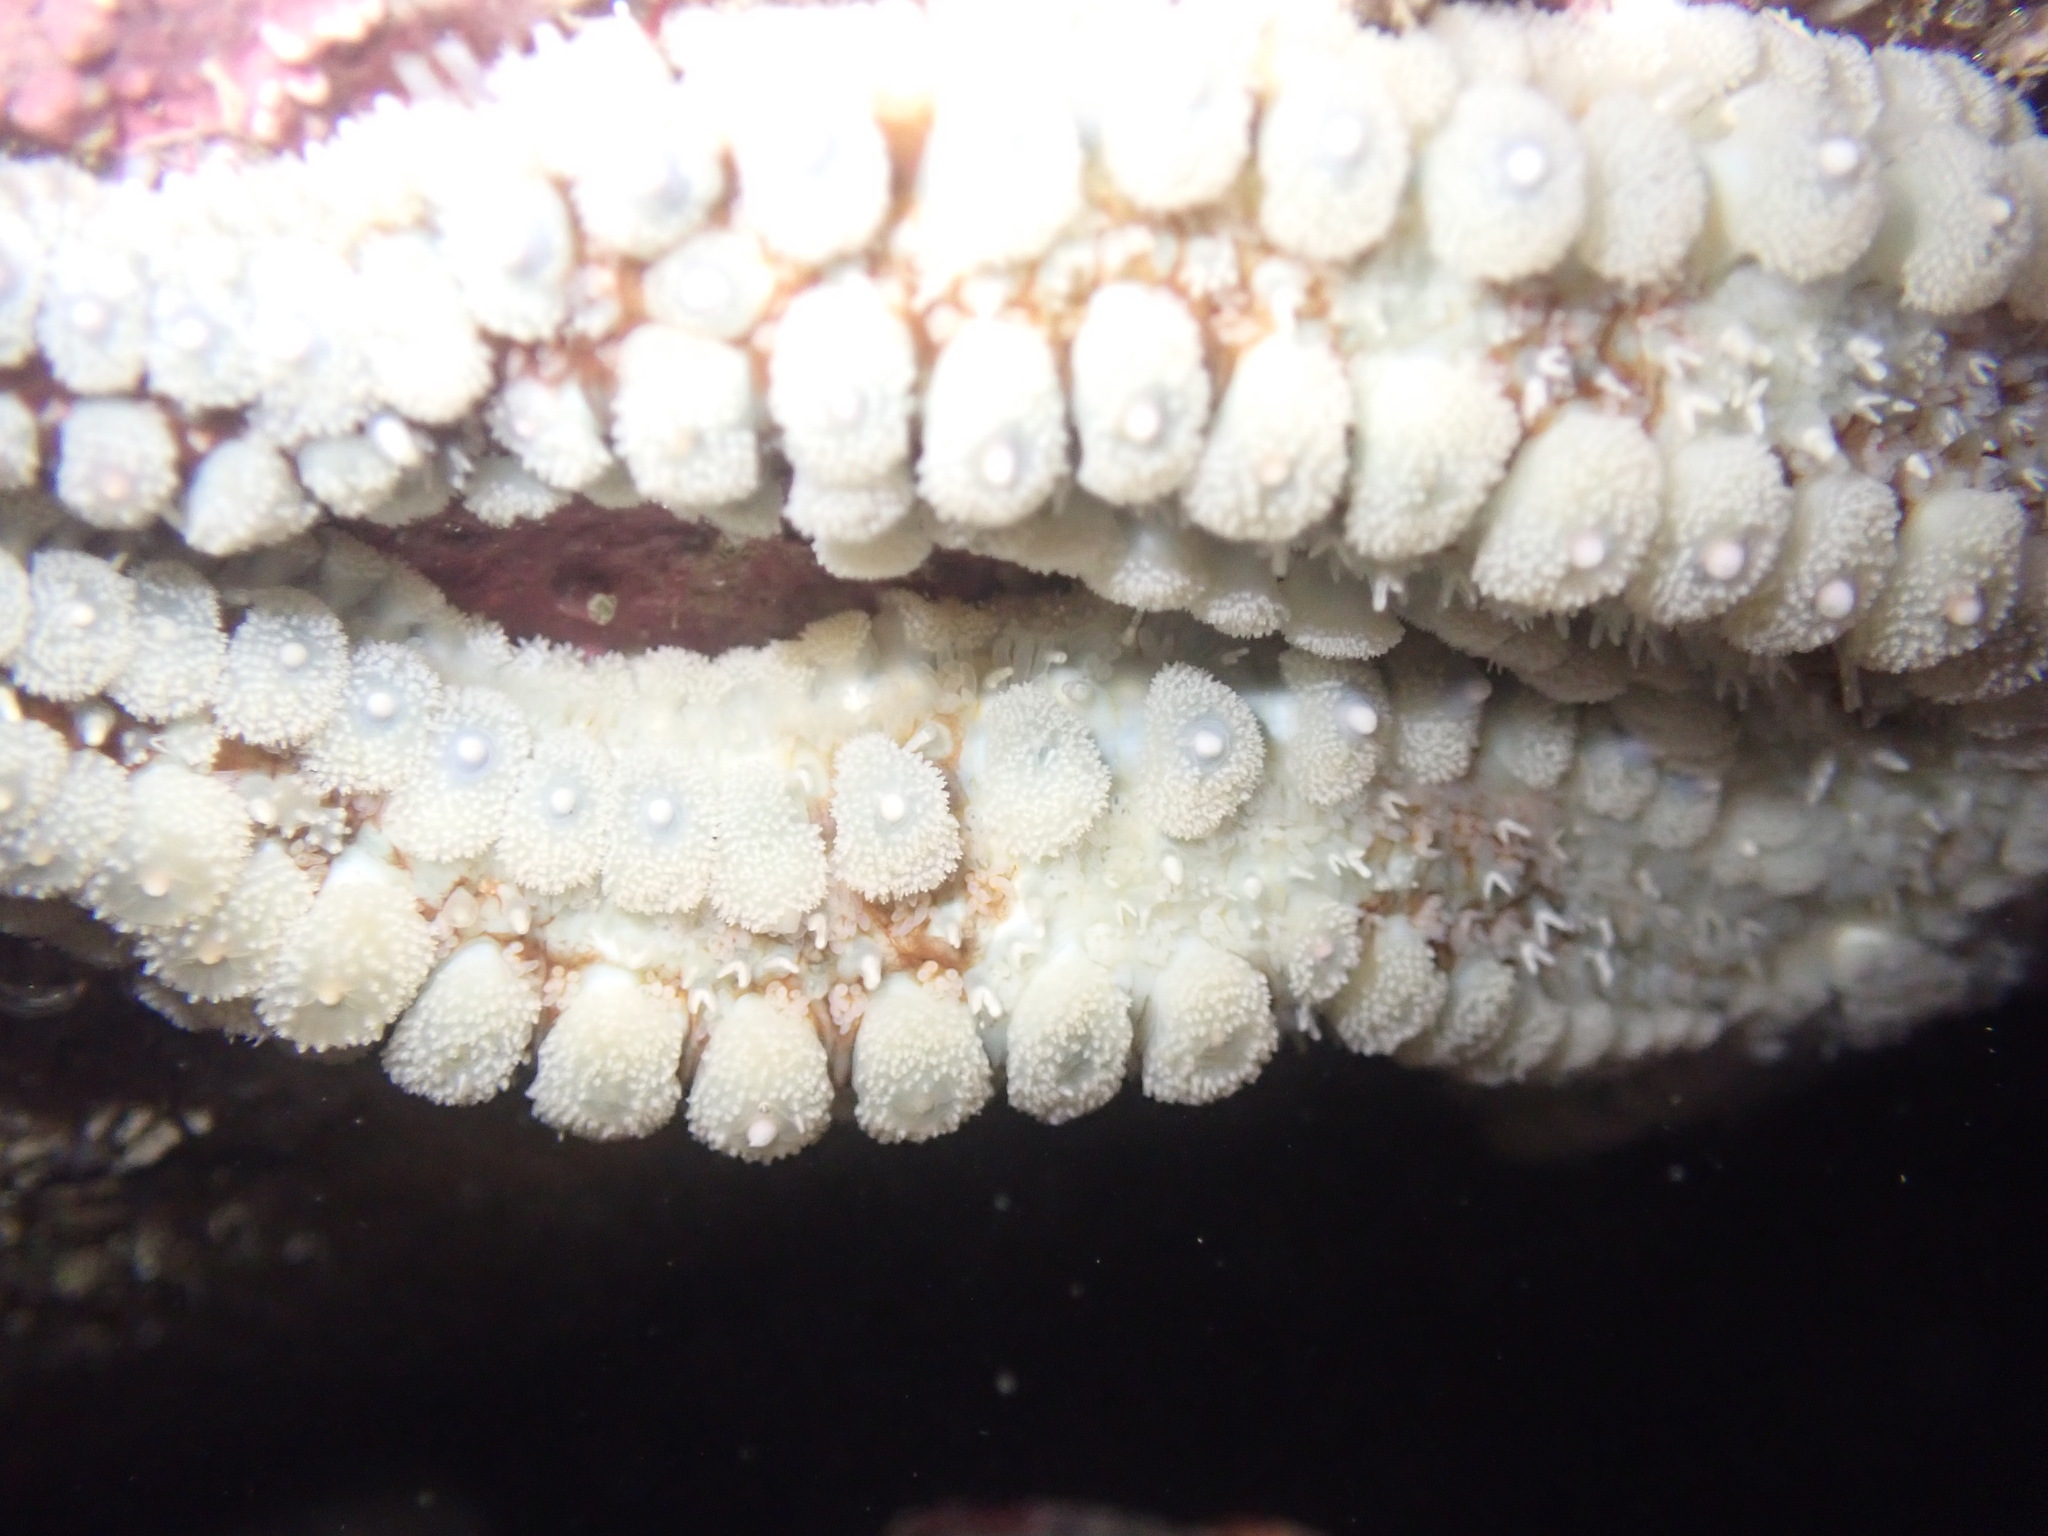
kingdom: Animalia
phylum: Echinodermata
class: Asteroidea
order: Forcipulatida
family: Asteriidae
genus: Marthasterias
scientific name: Marthasterias glacialis
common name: Spiny starfish
